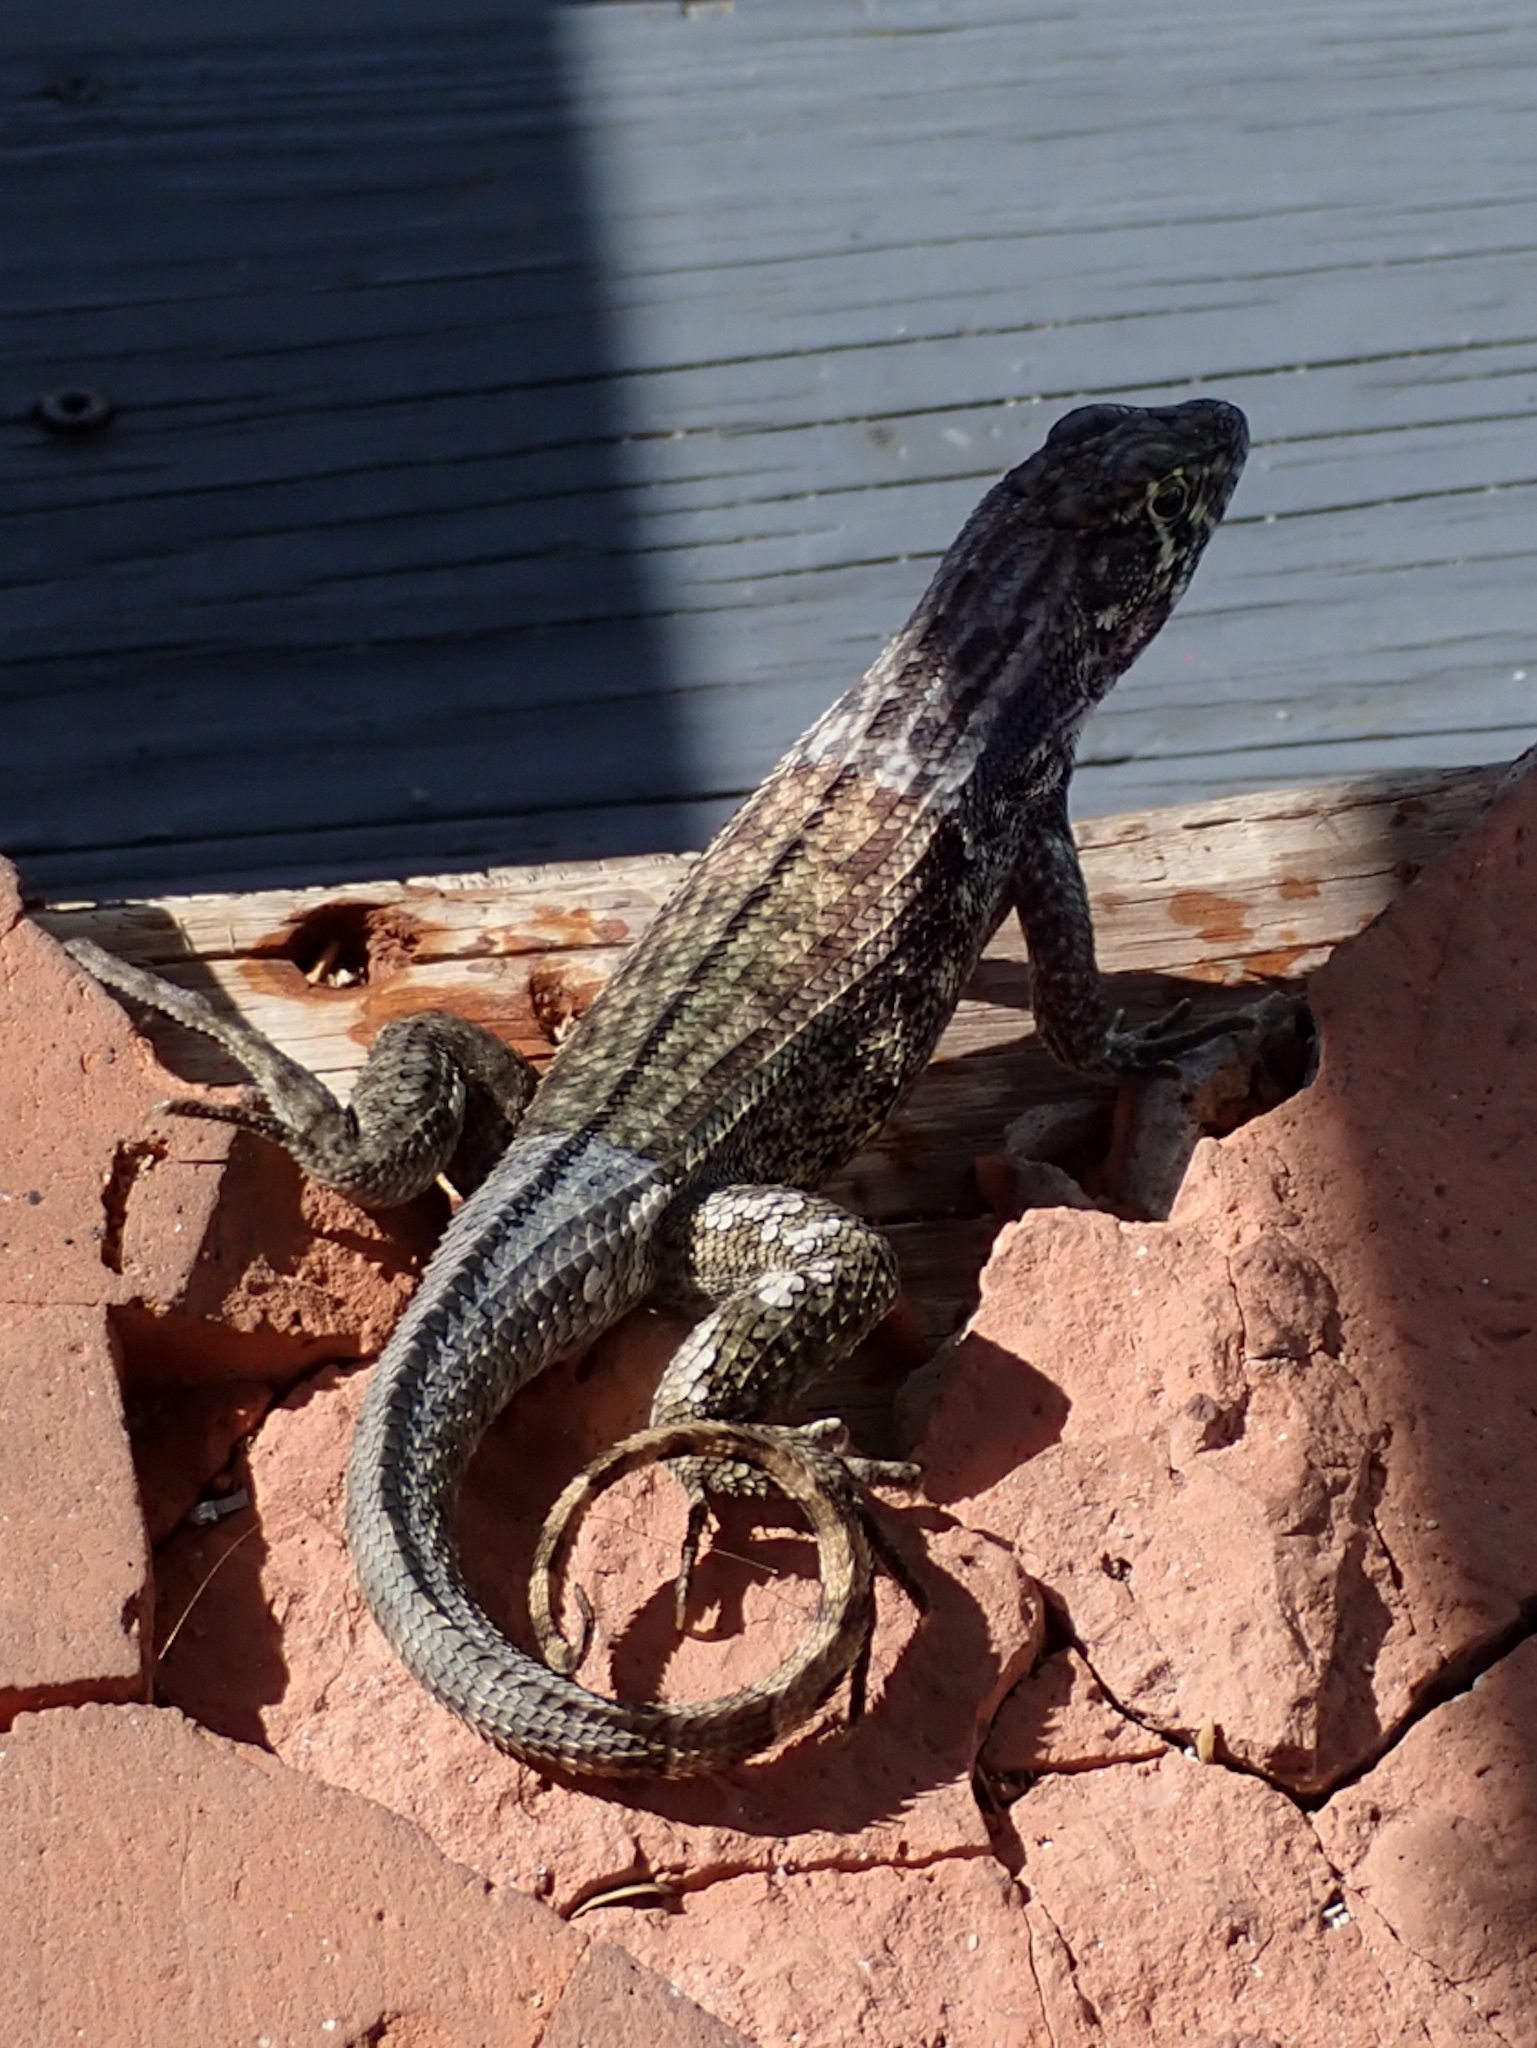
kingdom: Animalia
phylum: Chordata
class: Squamata
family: Leiocephalidae
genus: Leiocephalus
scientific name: Leiocephalus varius
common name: Cayman curlytail
